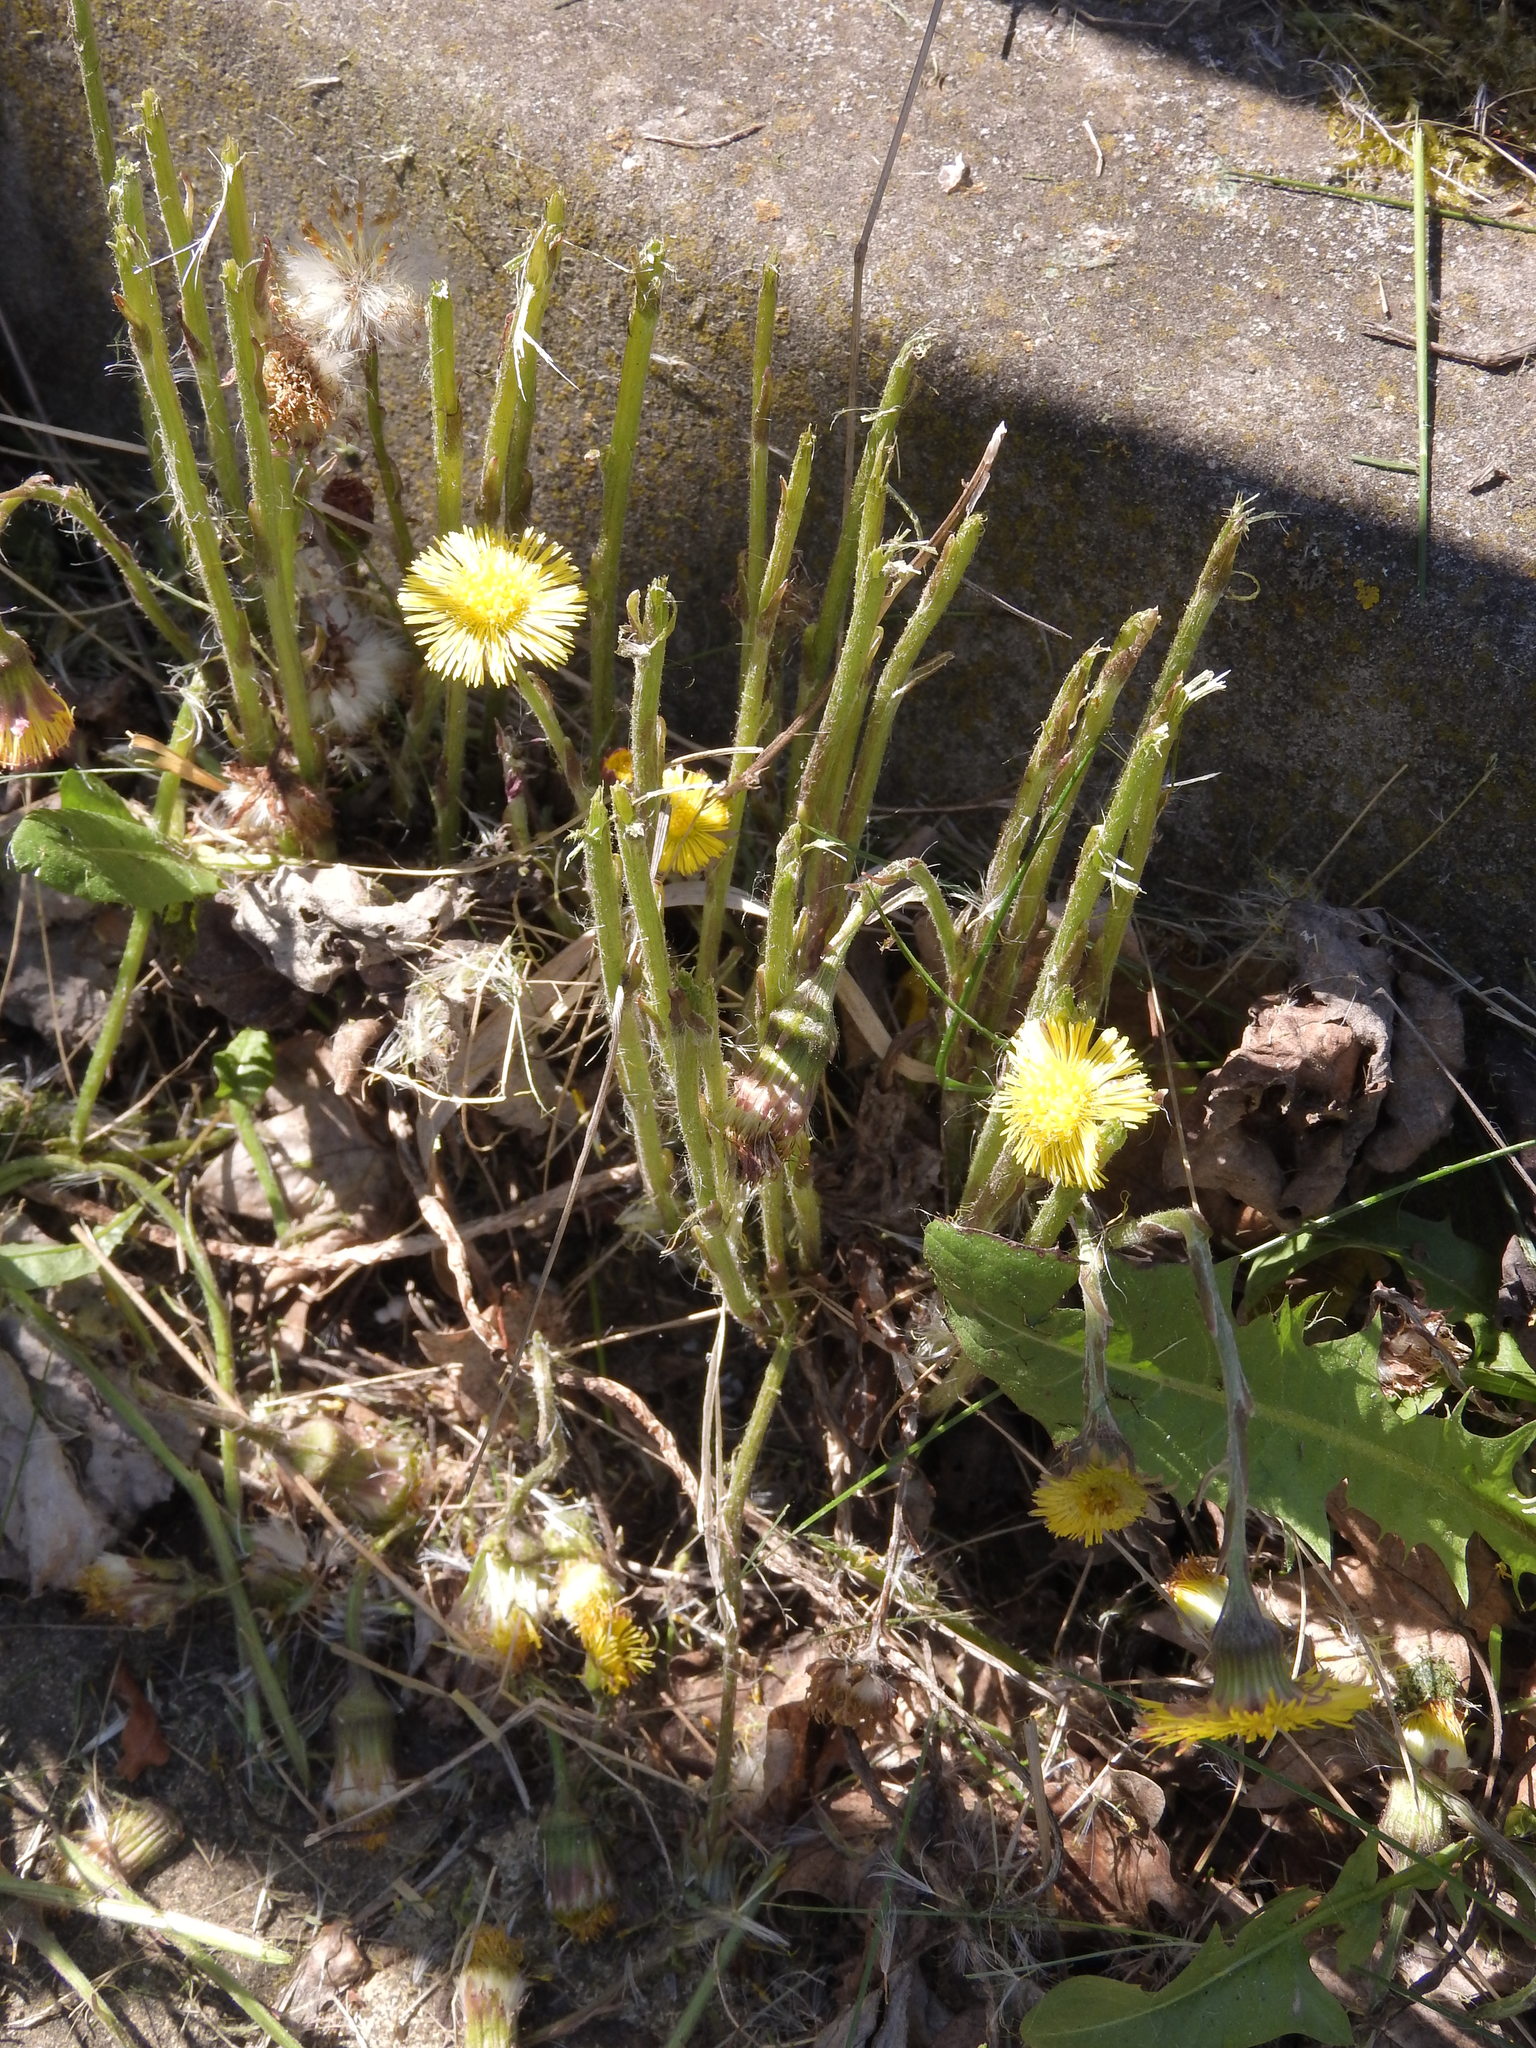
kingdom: Plantae
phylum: Tracheophyta
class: Magnoliopsida
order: Asterales
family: Asteraceae
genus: Tussilago
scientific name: Tussilago farfara
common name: Coltsfoot
